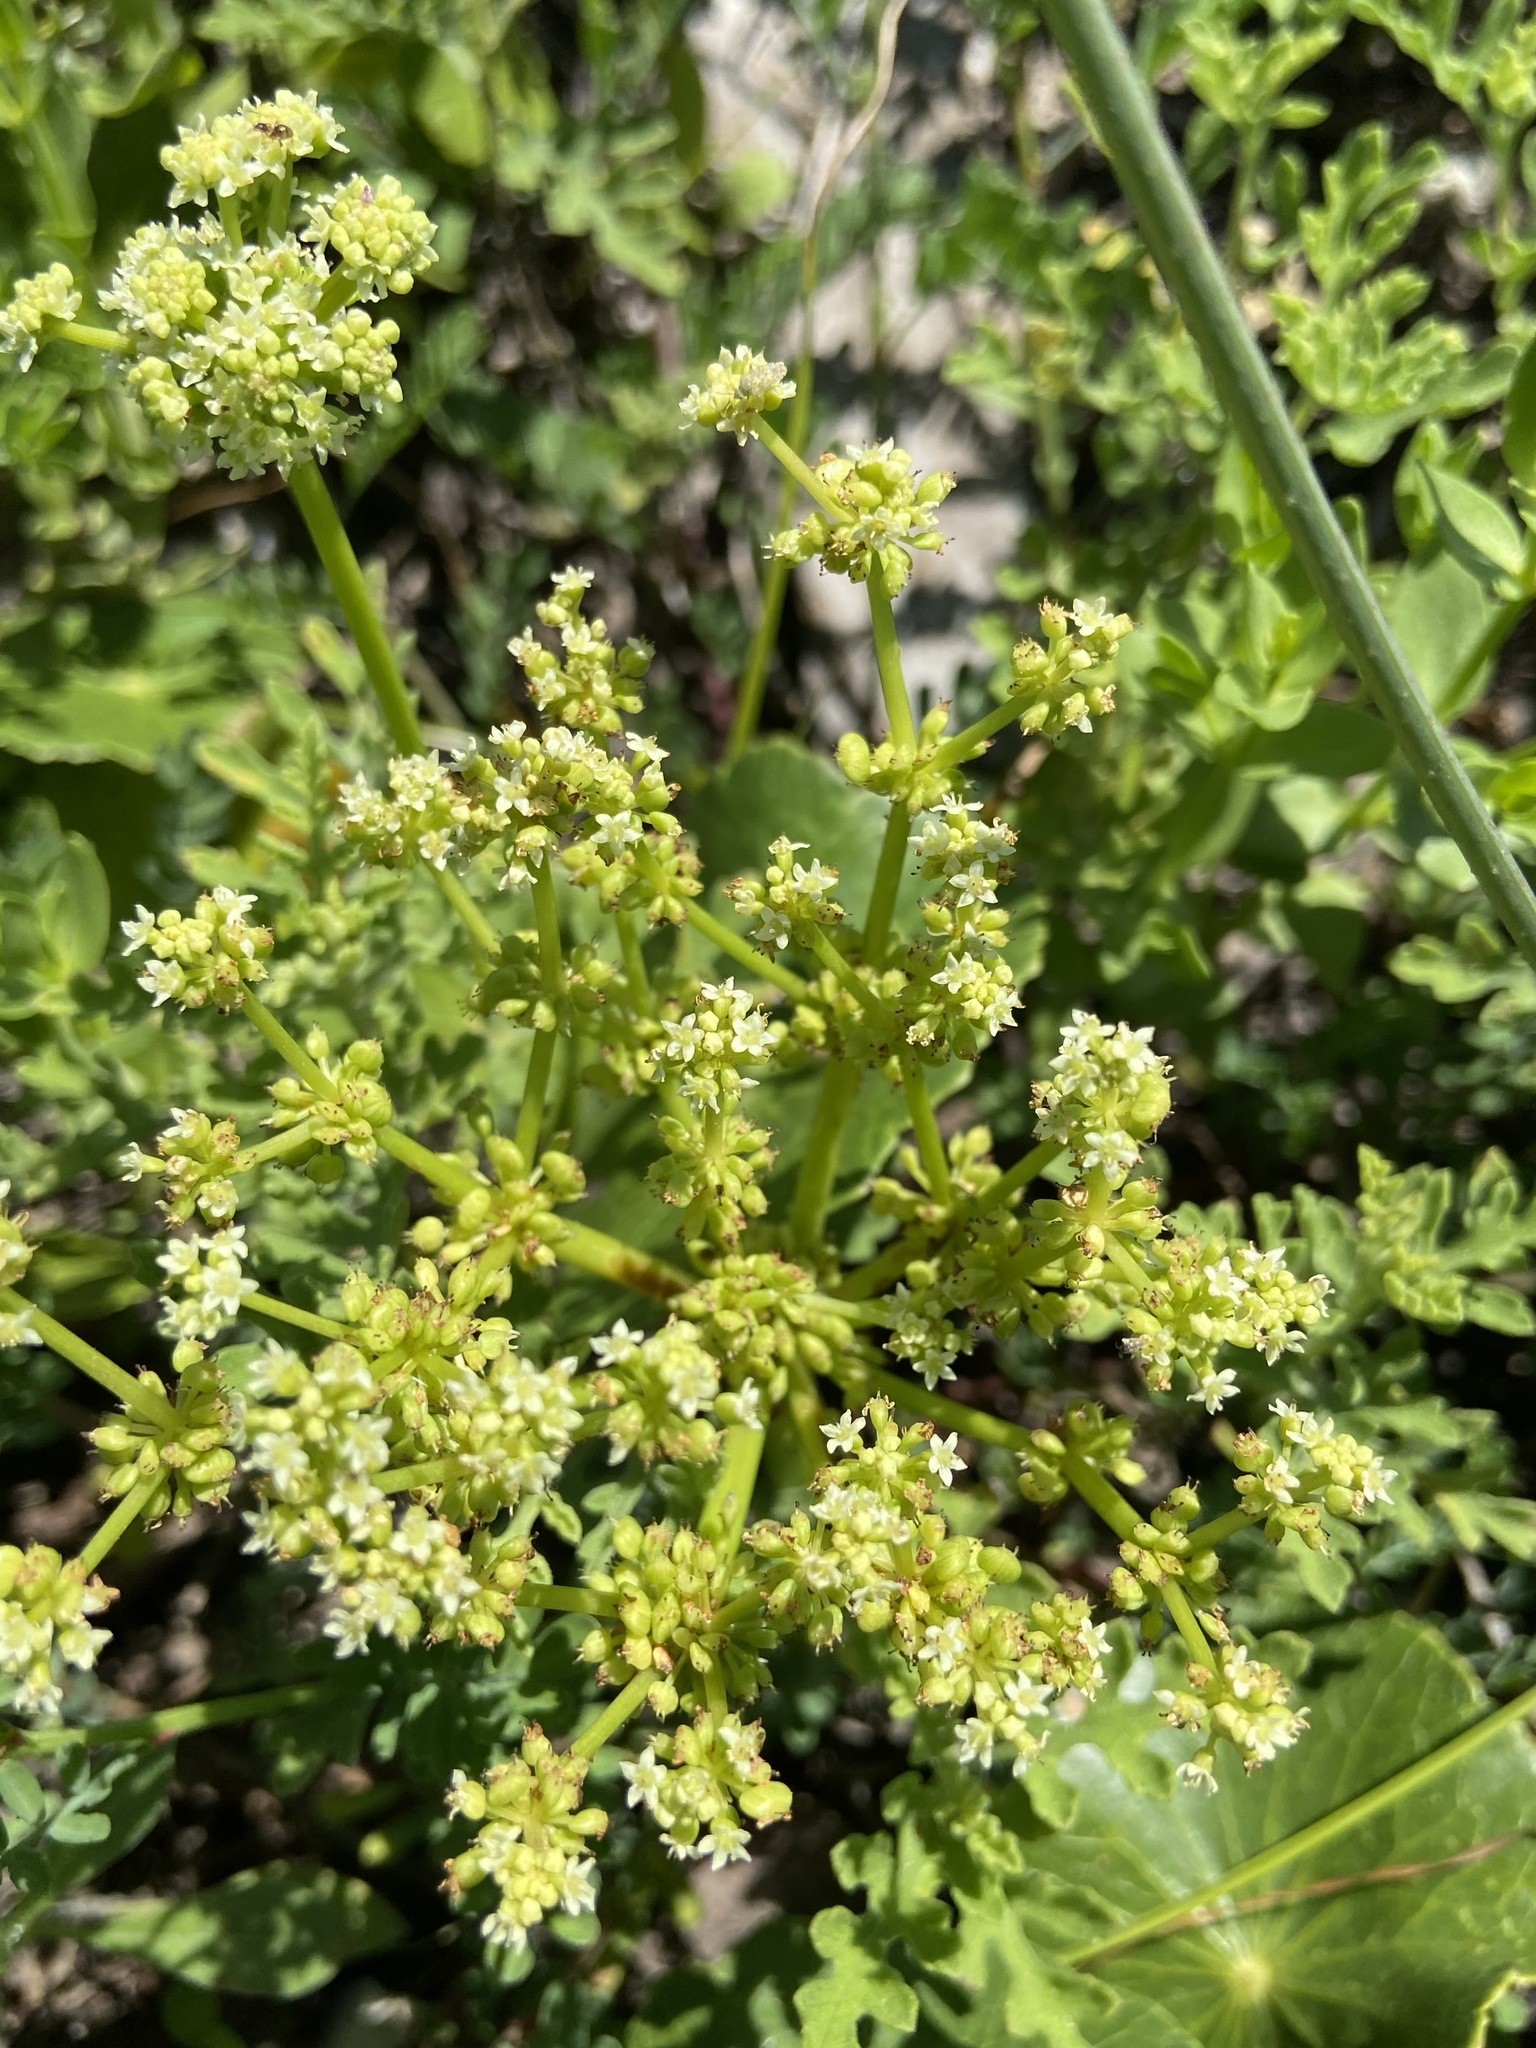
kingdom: Plantae
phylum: Tracheophyta
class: Magnoliopsida
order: Apiales
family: Araliaceae
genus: Hydrocotyle
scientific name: Hydrocotyle bonariensis
